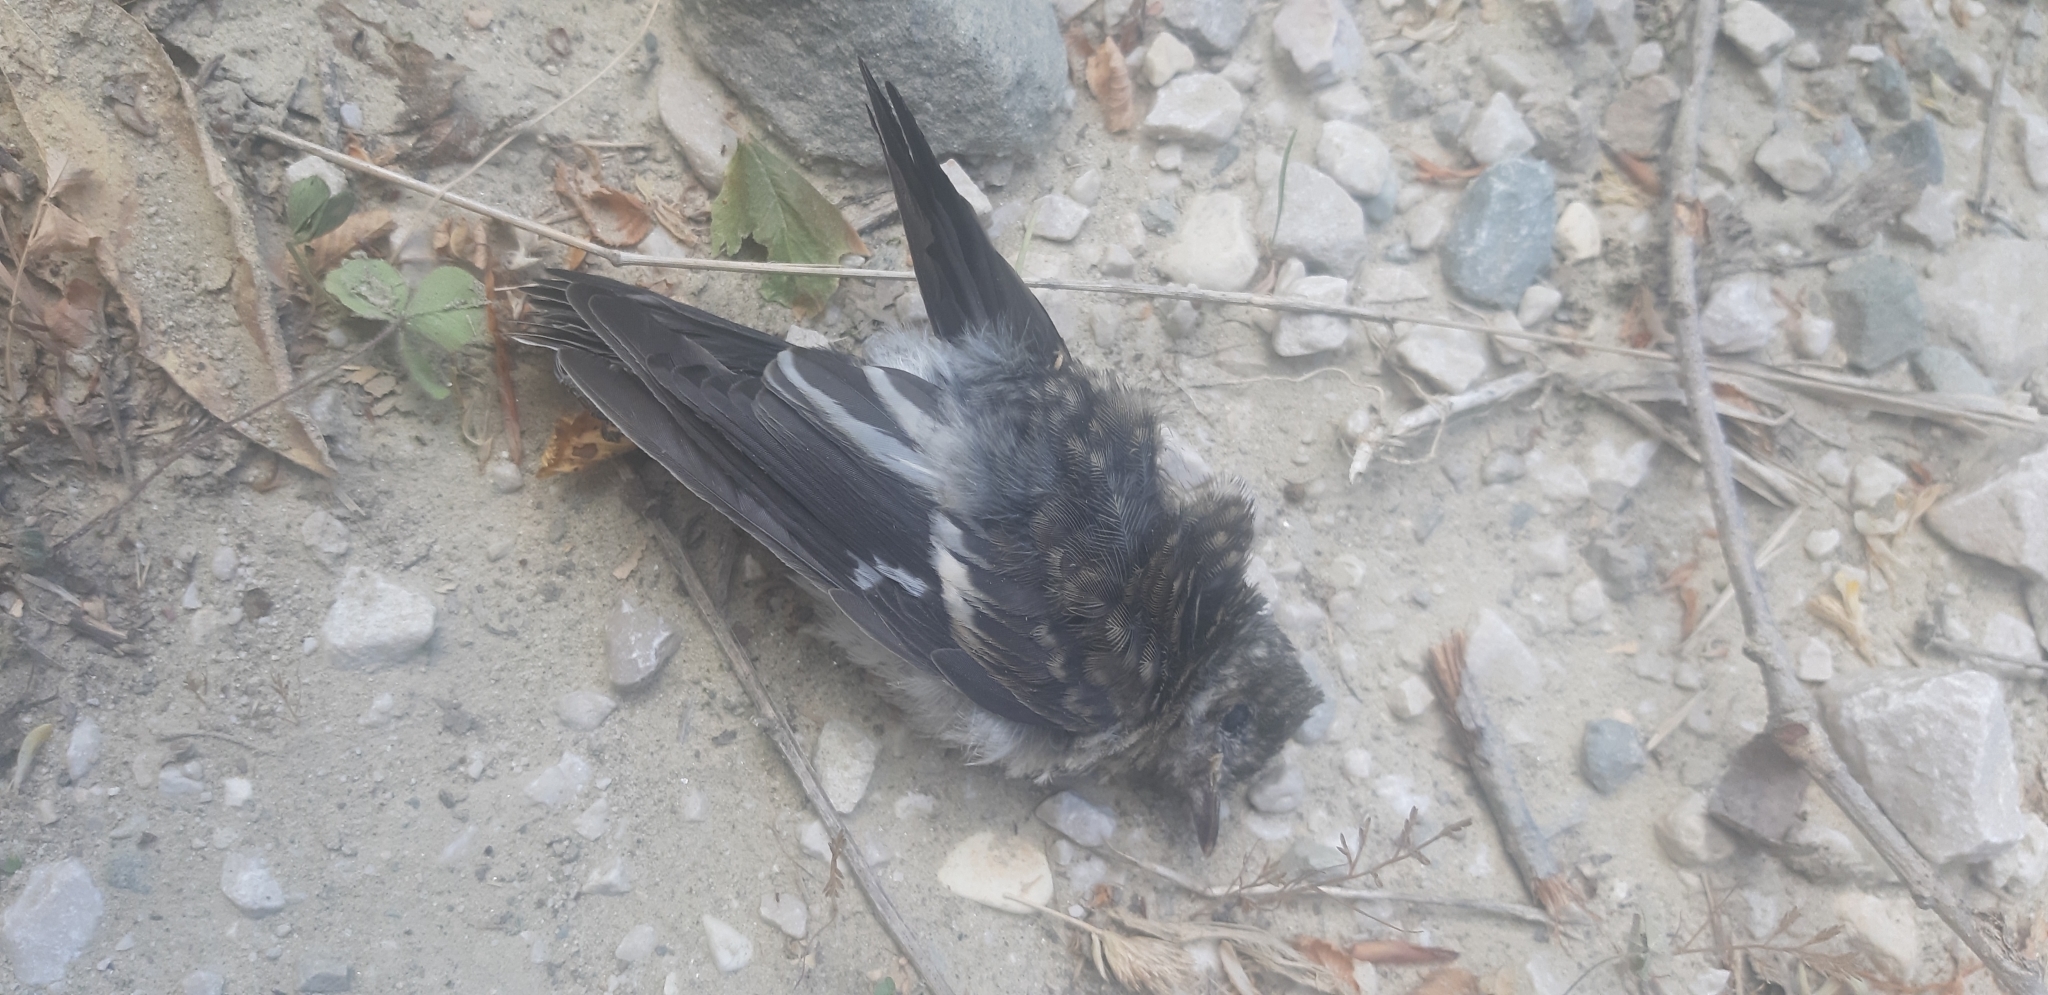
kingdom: Animalia
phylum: Chordata
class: Aves
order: Passeriformes
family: Muscicapidae
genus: Ficedula
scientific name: Ficedula albicollis
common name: Collared flycatcher
